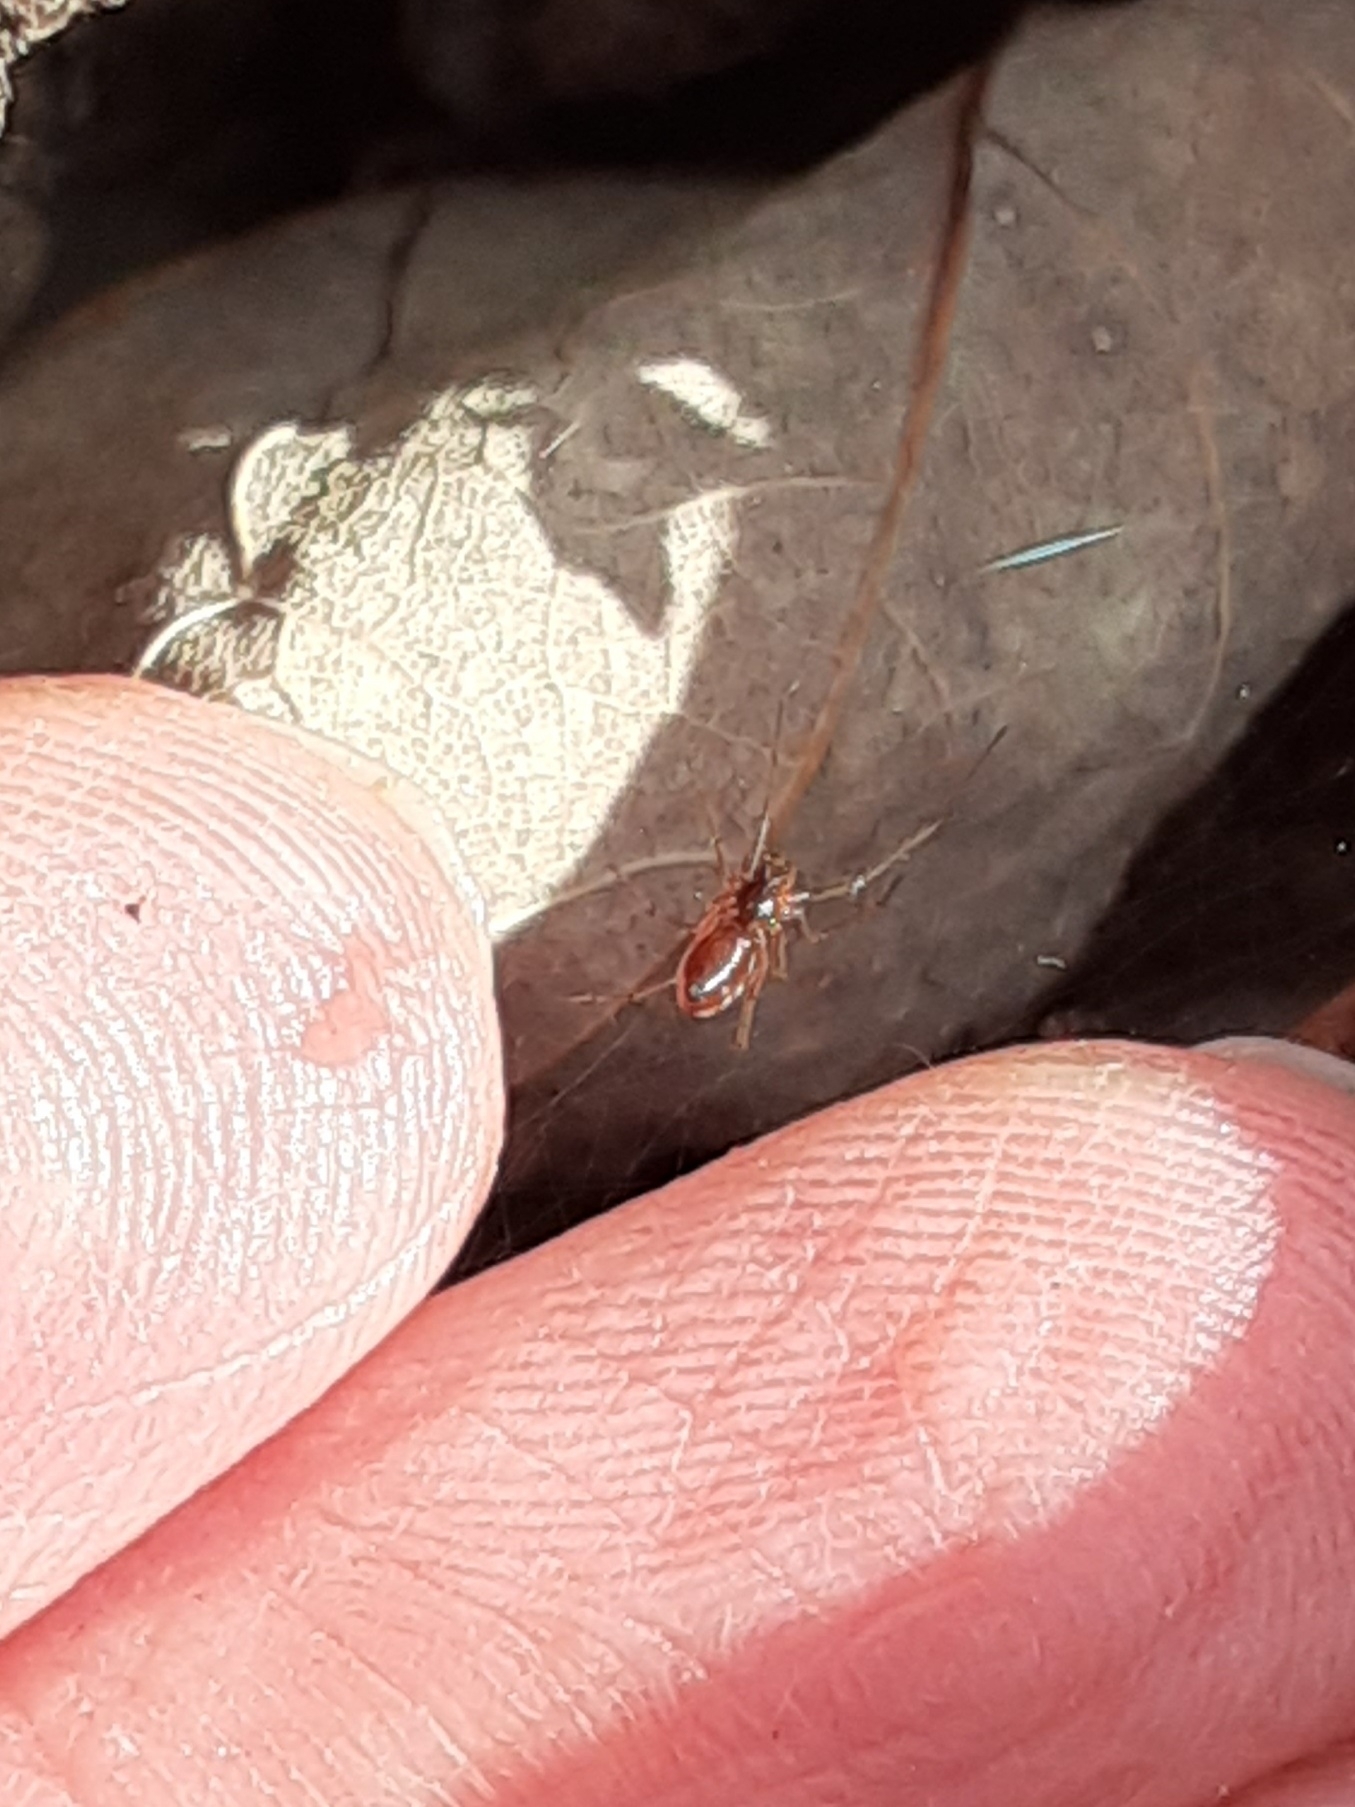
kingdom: Animalia
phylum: Arthropoda
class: Arachnida
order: Araneae
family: Linyphiidae
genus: Florinda
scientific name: Florinda coccinea
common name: Black-tailed red sheetweaver
